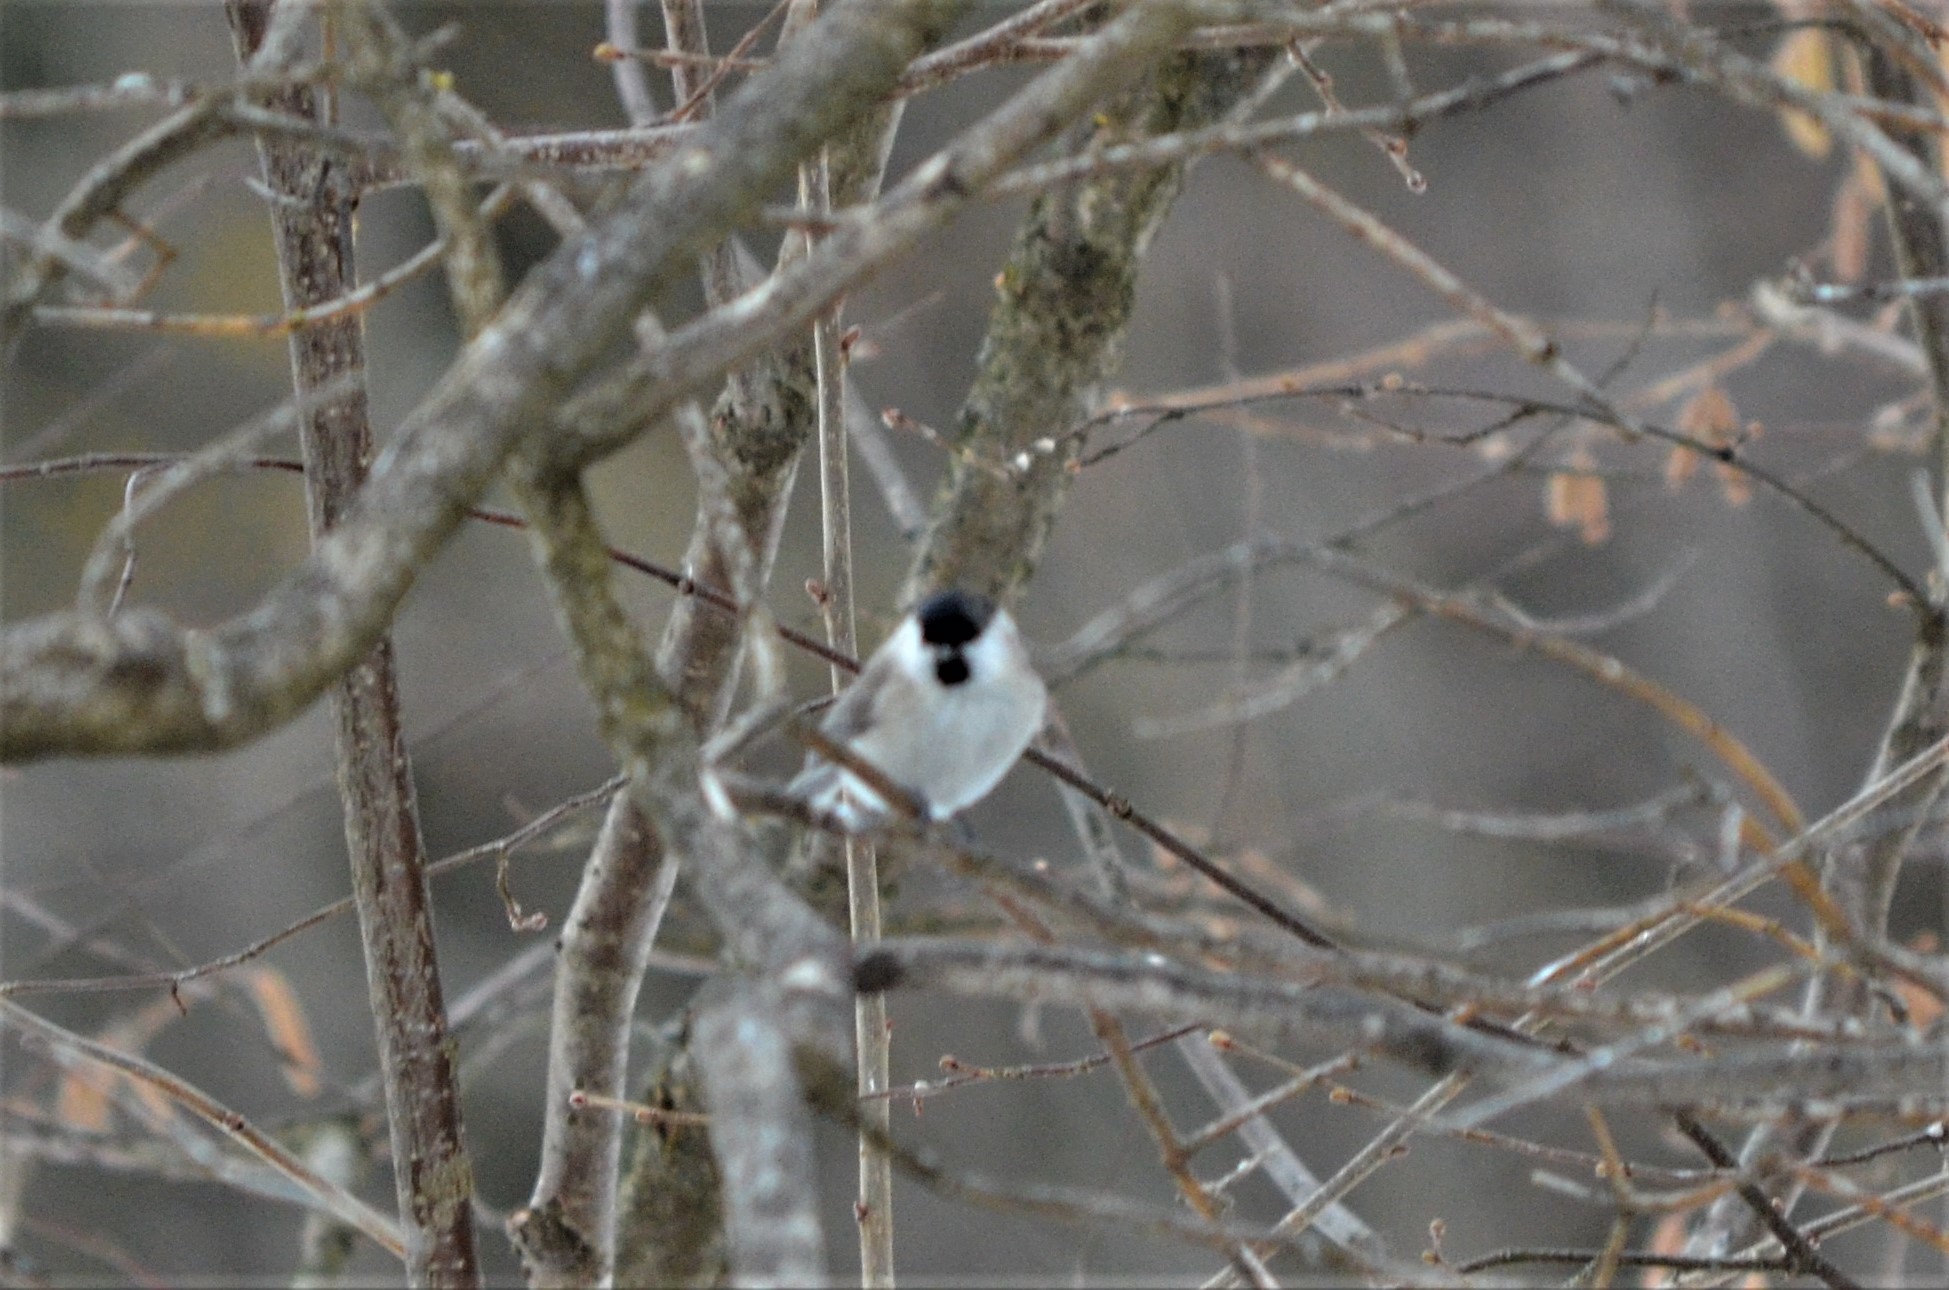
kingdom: Animalia
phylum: Chordata
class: Aves
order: Passeriformes
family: Paridae
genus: Poecile
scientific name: Poecile palustris
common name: Marsh tit
